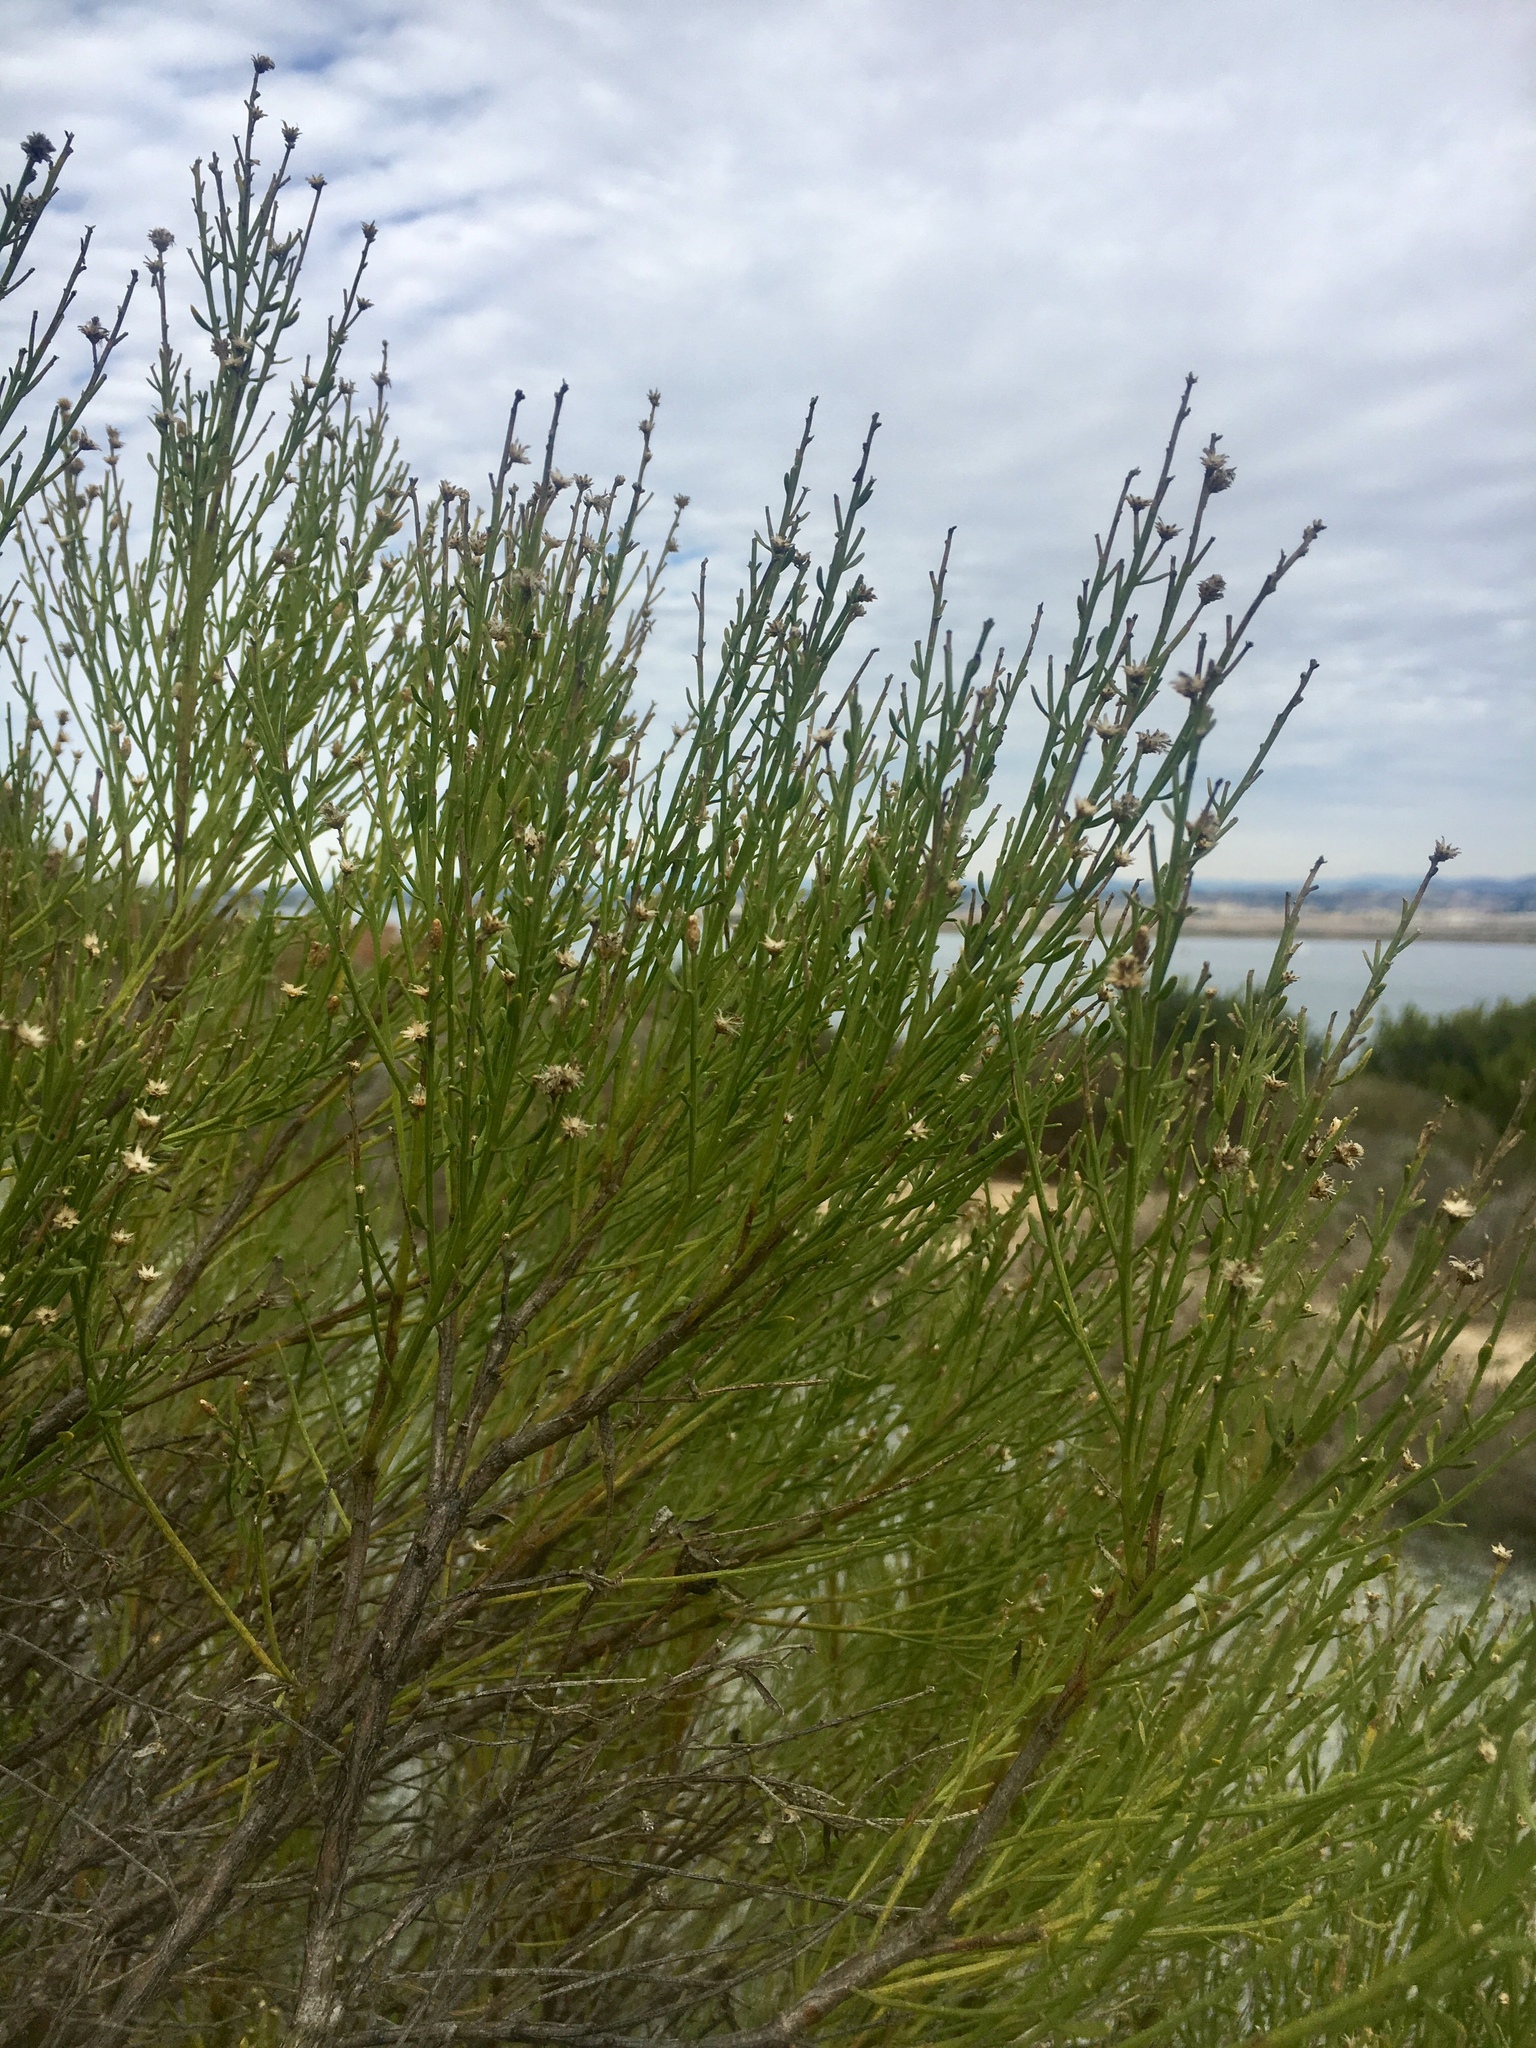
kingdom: Plantae
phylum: Tracheophyta
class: Magnoliopsida
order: Asterales
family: Asteraceae
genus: Baccharis
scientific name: Baccharis sarothroides
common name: Desert-broom
